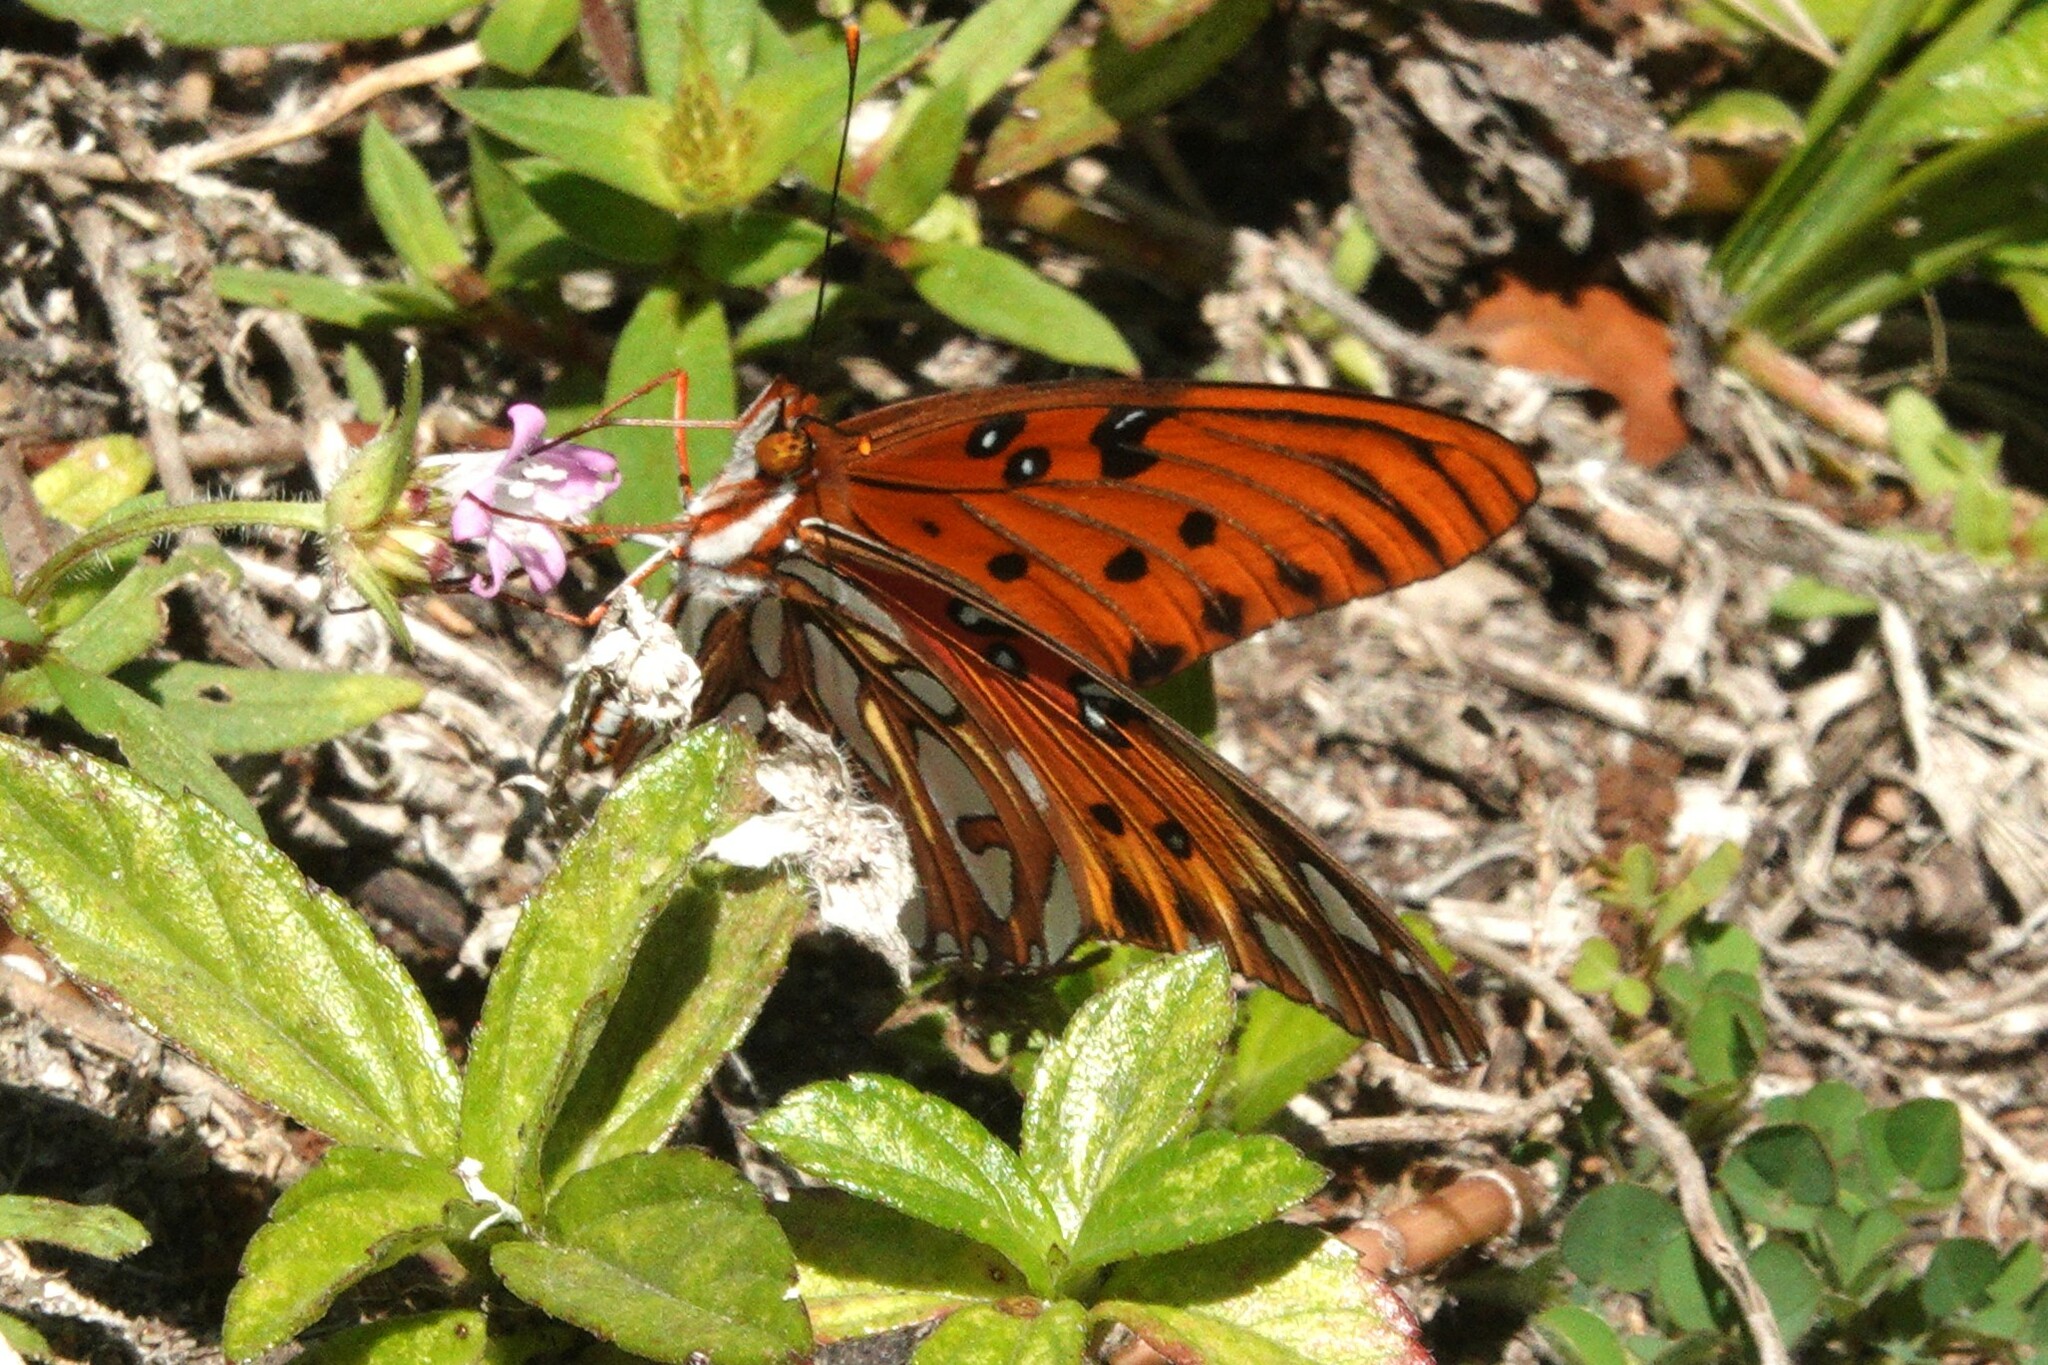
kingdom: Animalia
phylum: Arthropoda
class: Insecta
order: Lepidoptera
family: Nymphalidae
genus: Dione
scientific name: Dione vanillae
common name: Gulf fritillary
